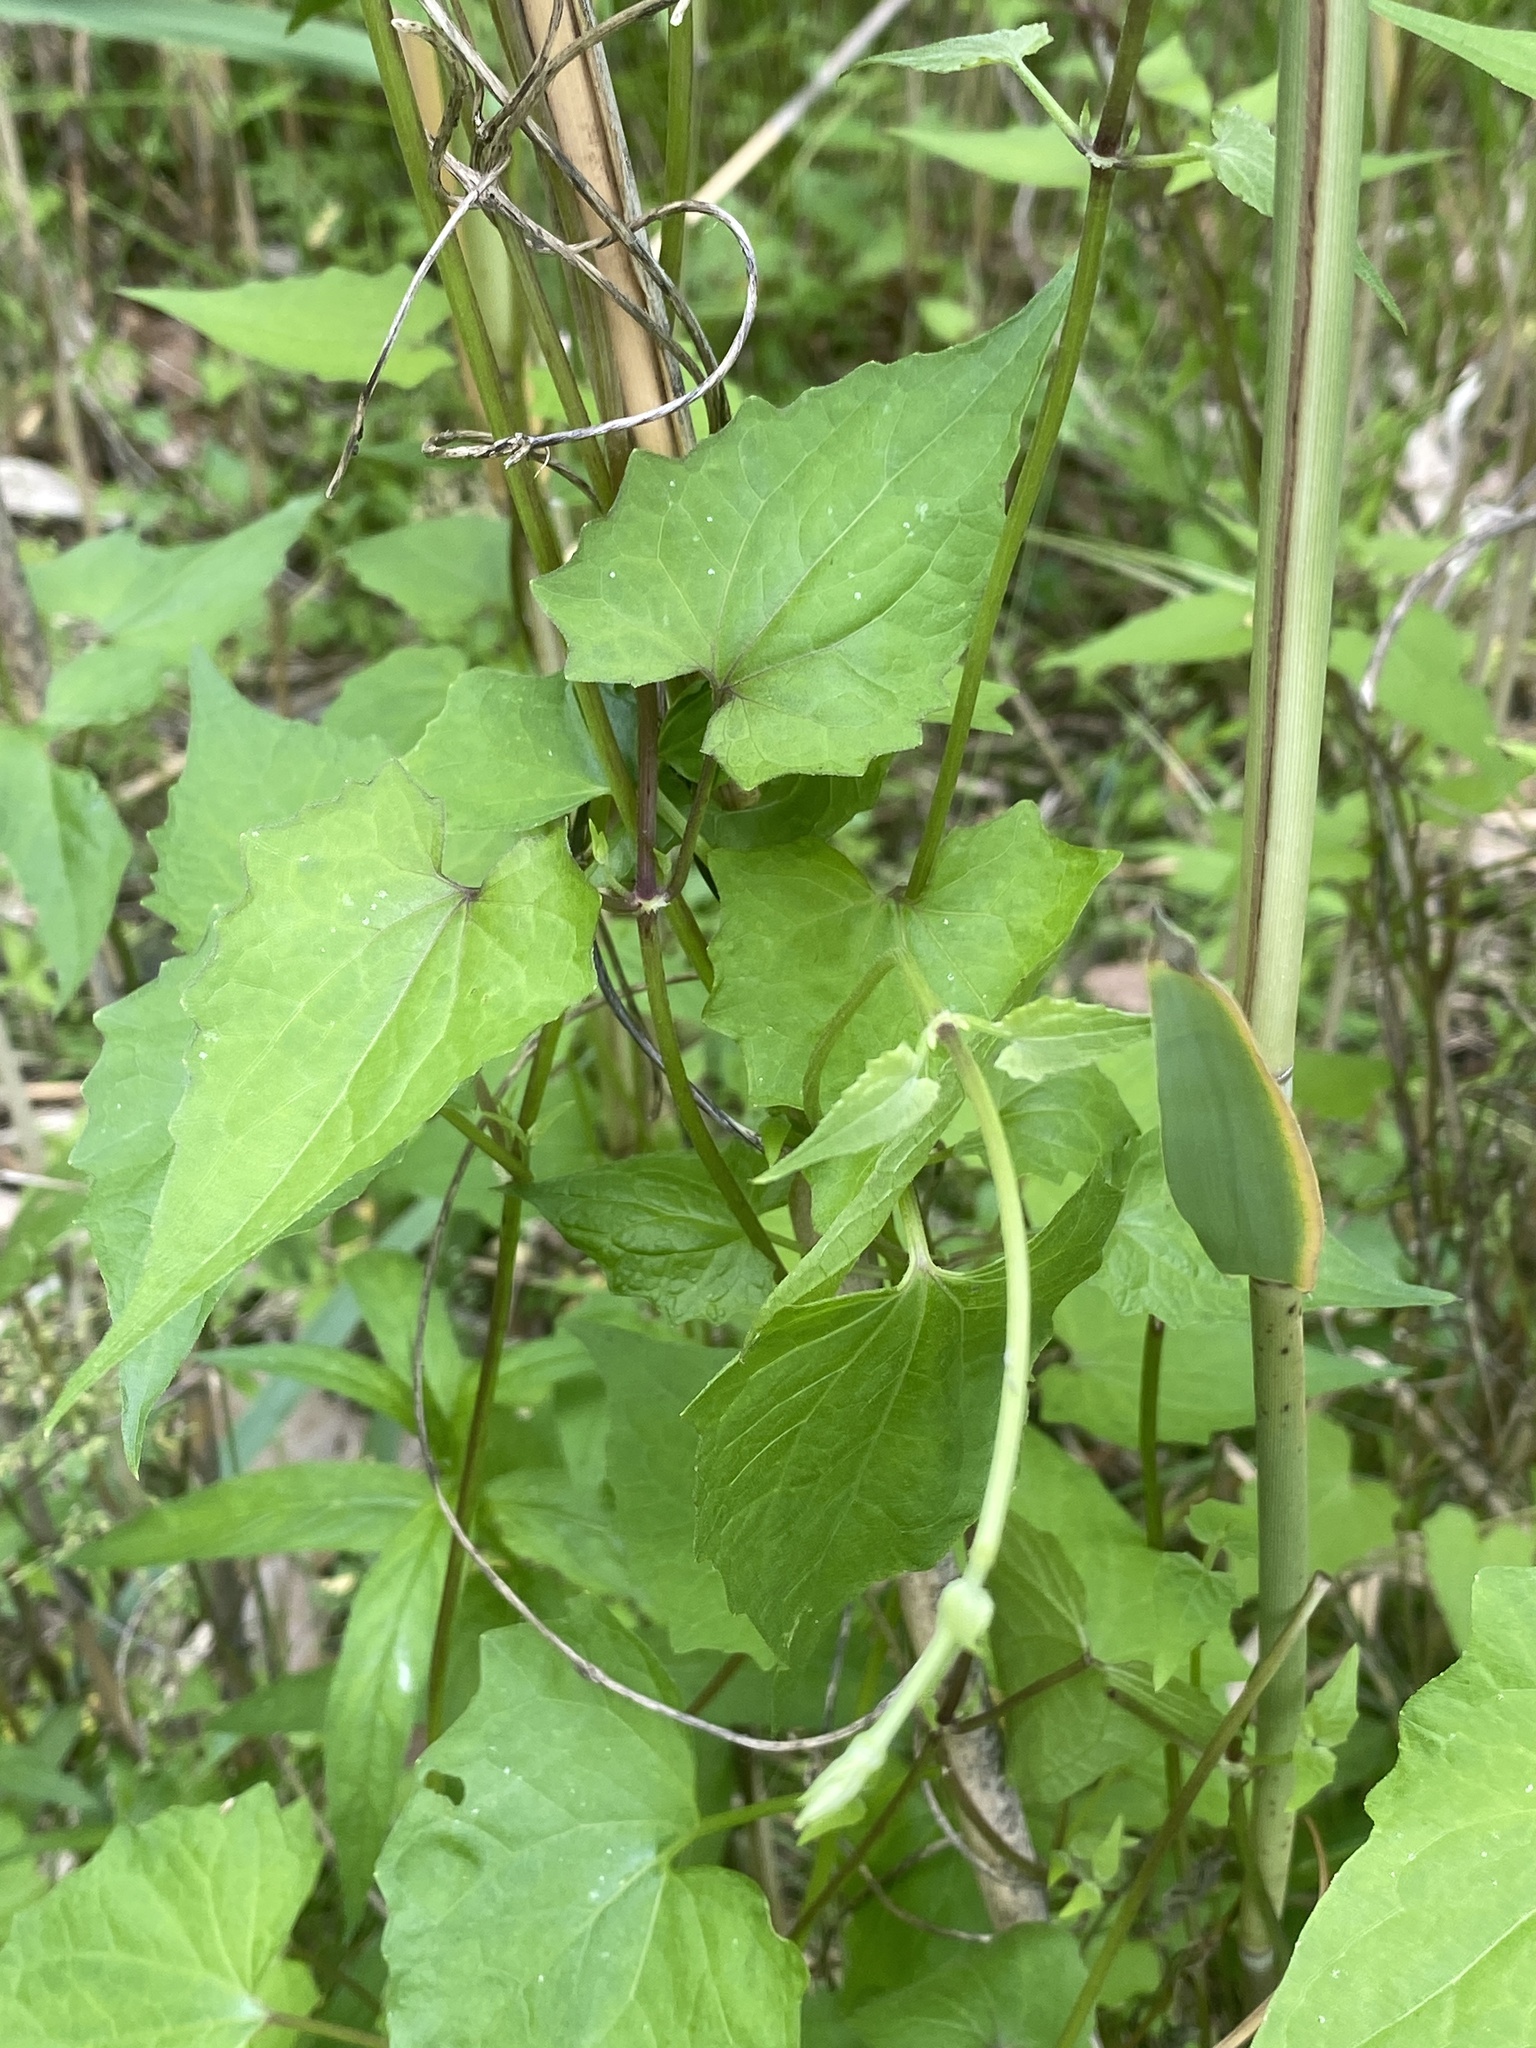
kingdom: Plantae
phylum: Tracheophyta
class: Magnoliopsida
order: Asterales
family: Asteraceae
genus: Mikania
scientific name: Mikania scandens
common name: Climbing hempvine
